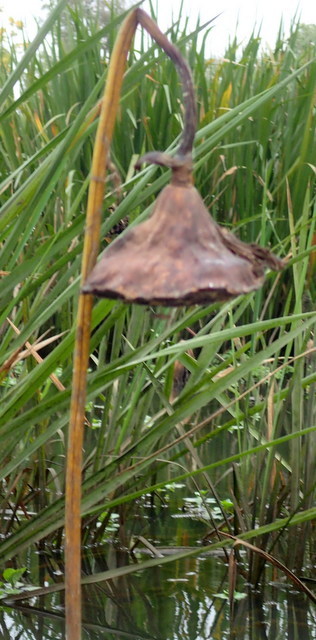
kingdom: Plantae
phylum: Tracheophyta
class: Magnoliopsida
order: Proteales
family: Nelumbonaceae
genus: Nelumbo
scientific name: Nelumbo lutea
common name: American lotus
